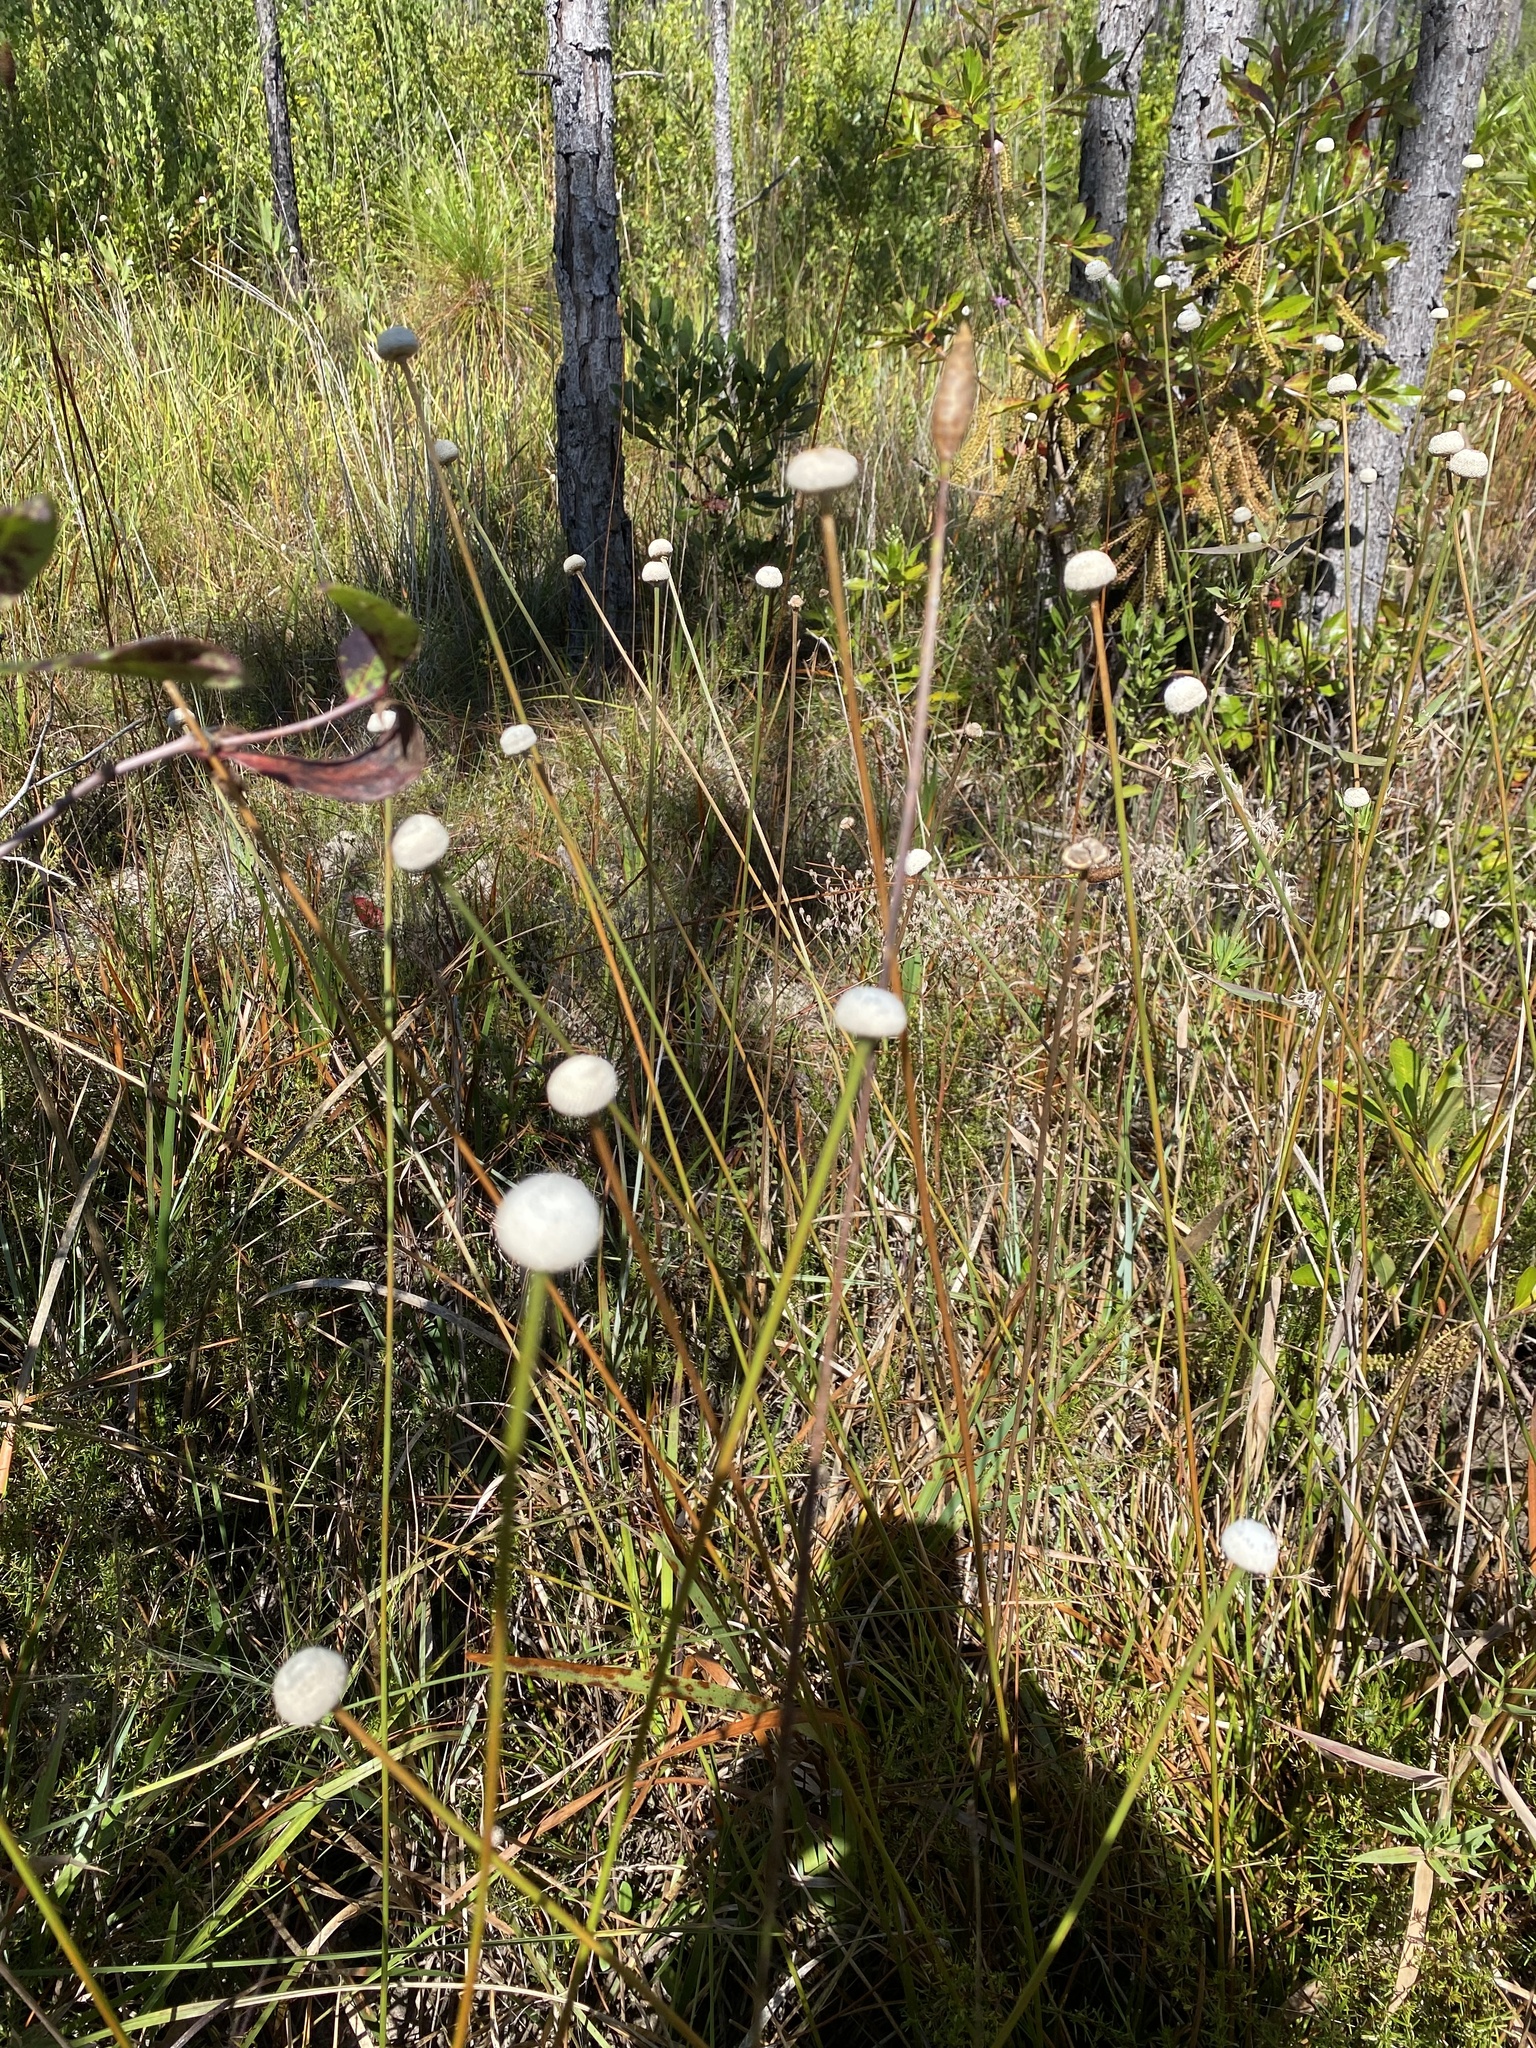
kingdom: Plantae
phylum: Tracheophyta
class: Liliopsida
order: Poales
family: Eriocaulaceae
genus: Eriocaulon
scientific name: Eriocaulon decangulare
